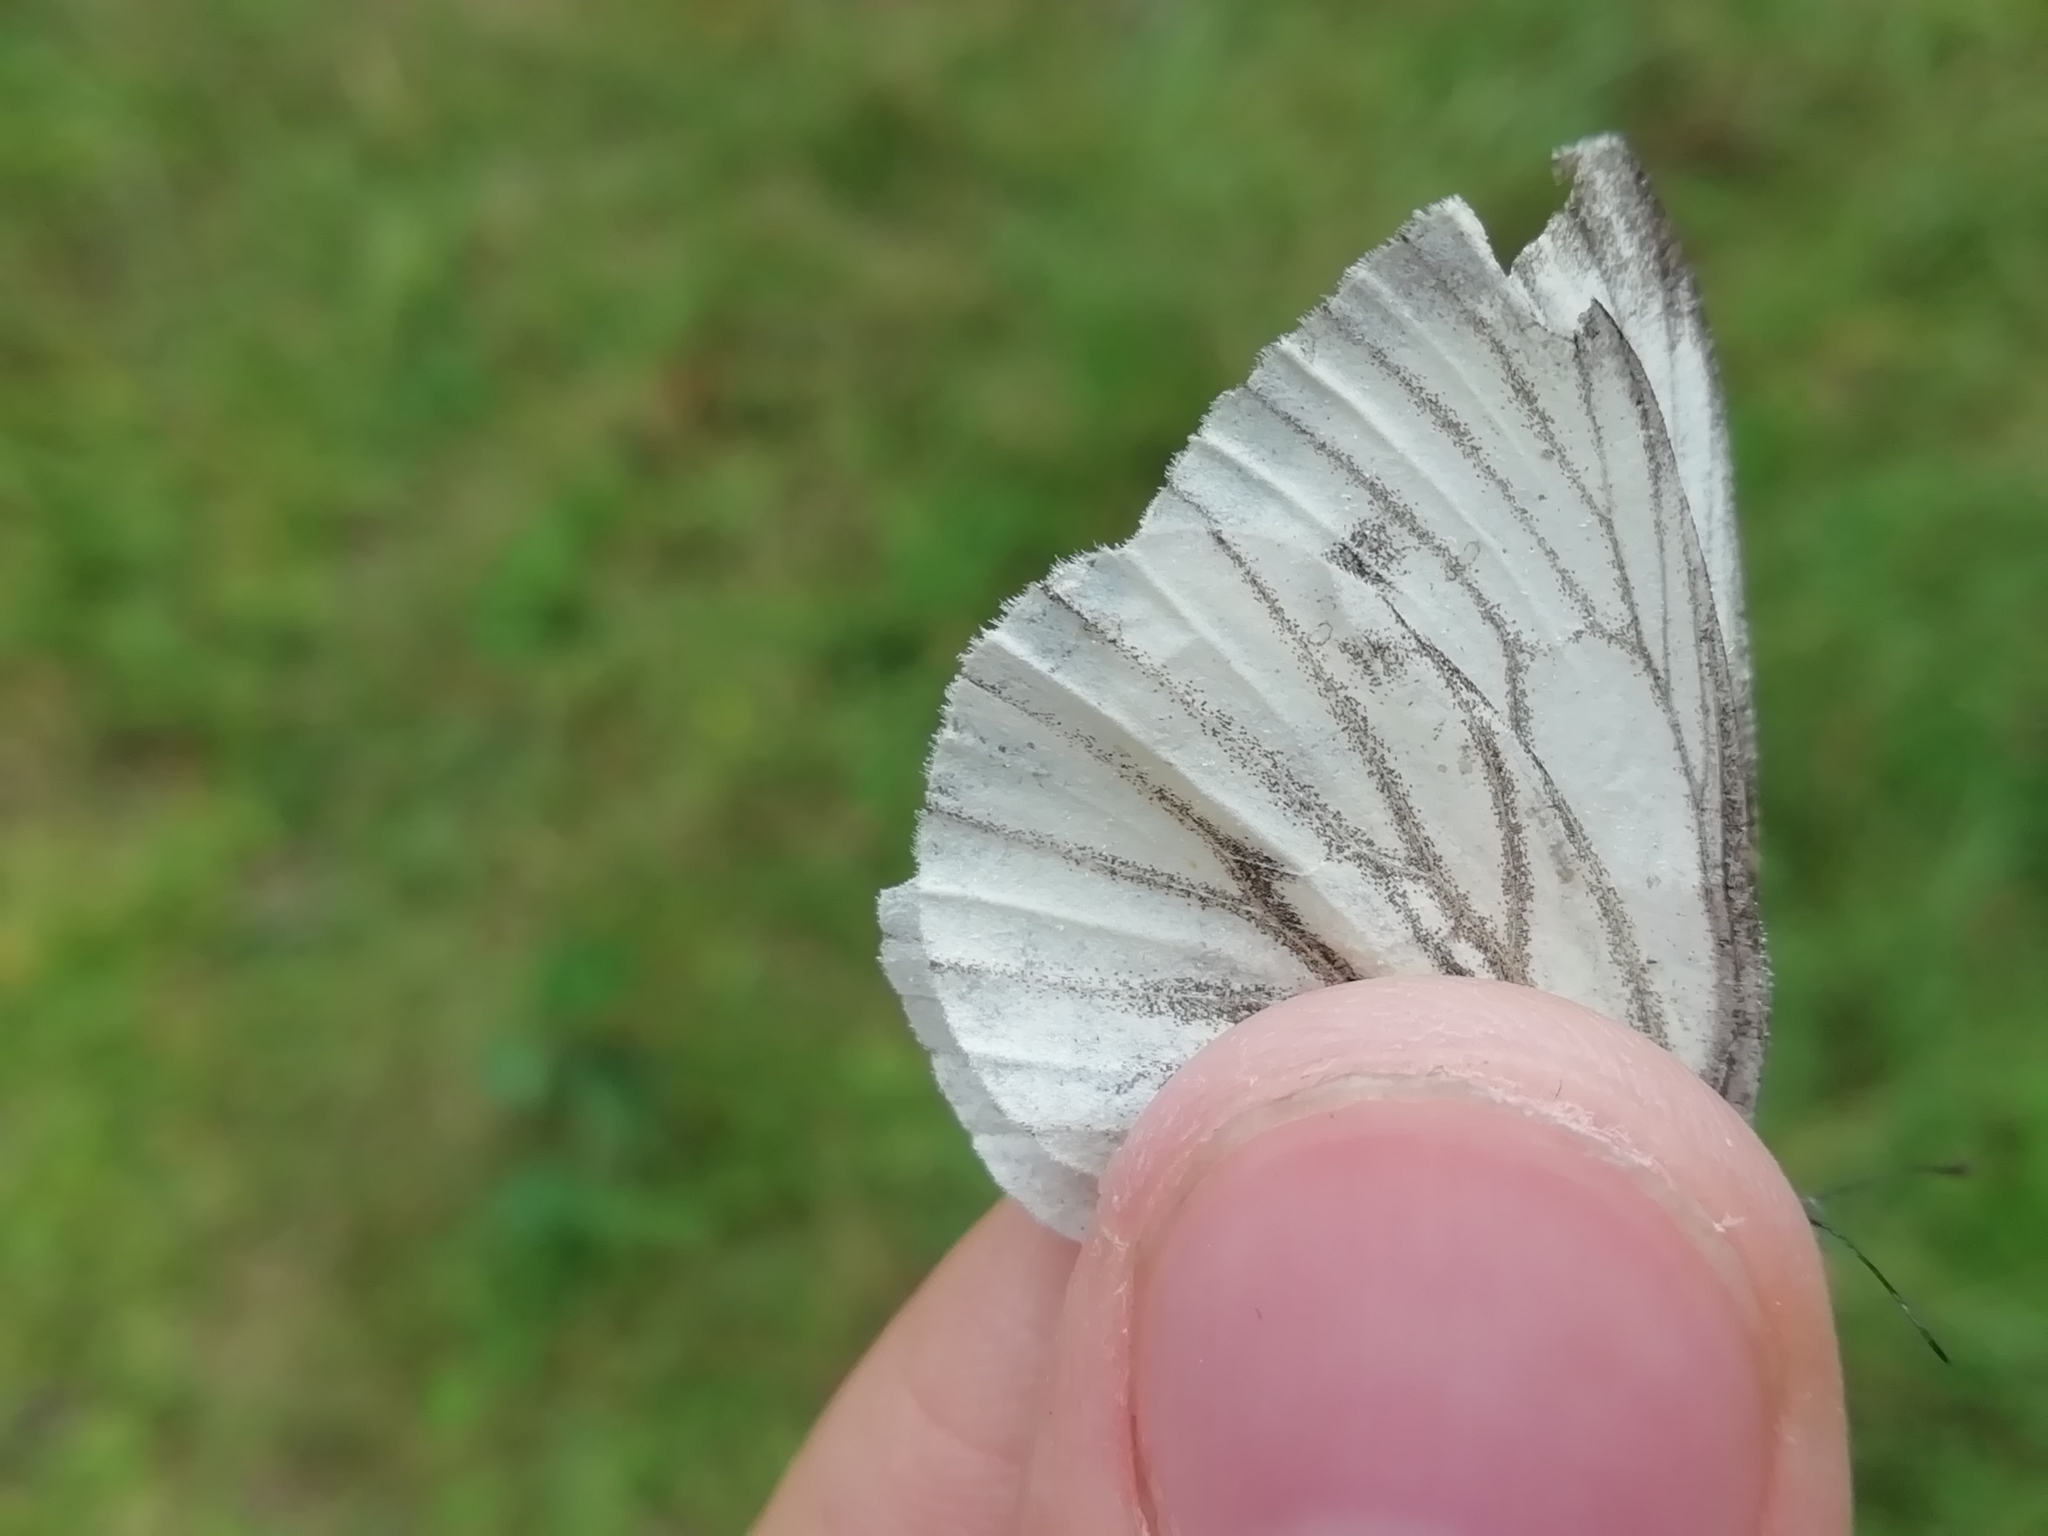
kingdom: Animalia
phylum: Arthropoda
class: Insecta
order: Lepidoptera
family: Pieridae
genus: Pieris
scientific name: Pieris napi
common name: Green-veined white
